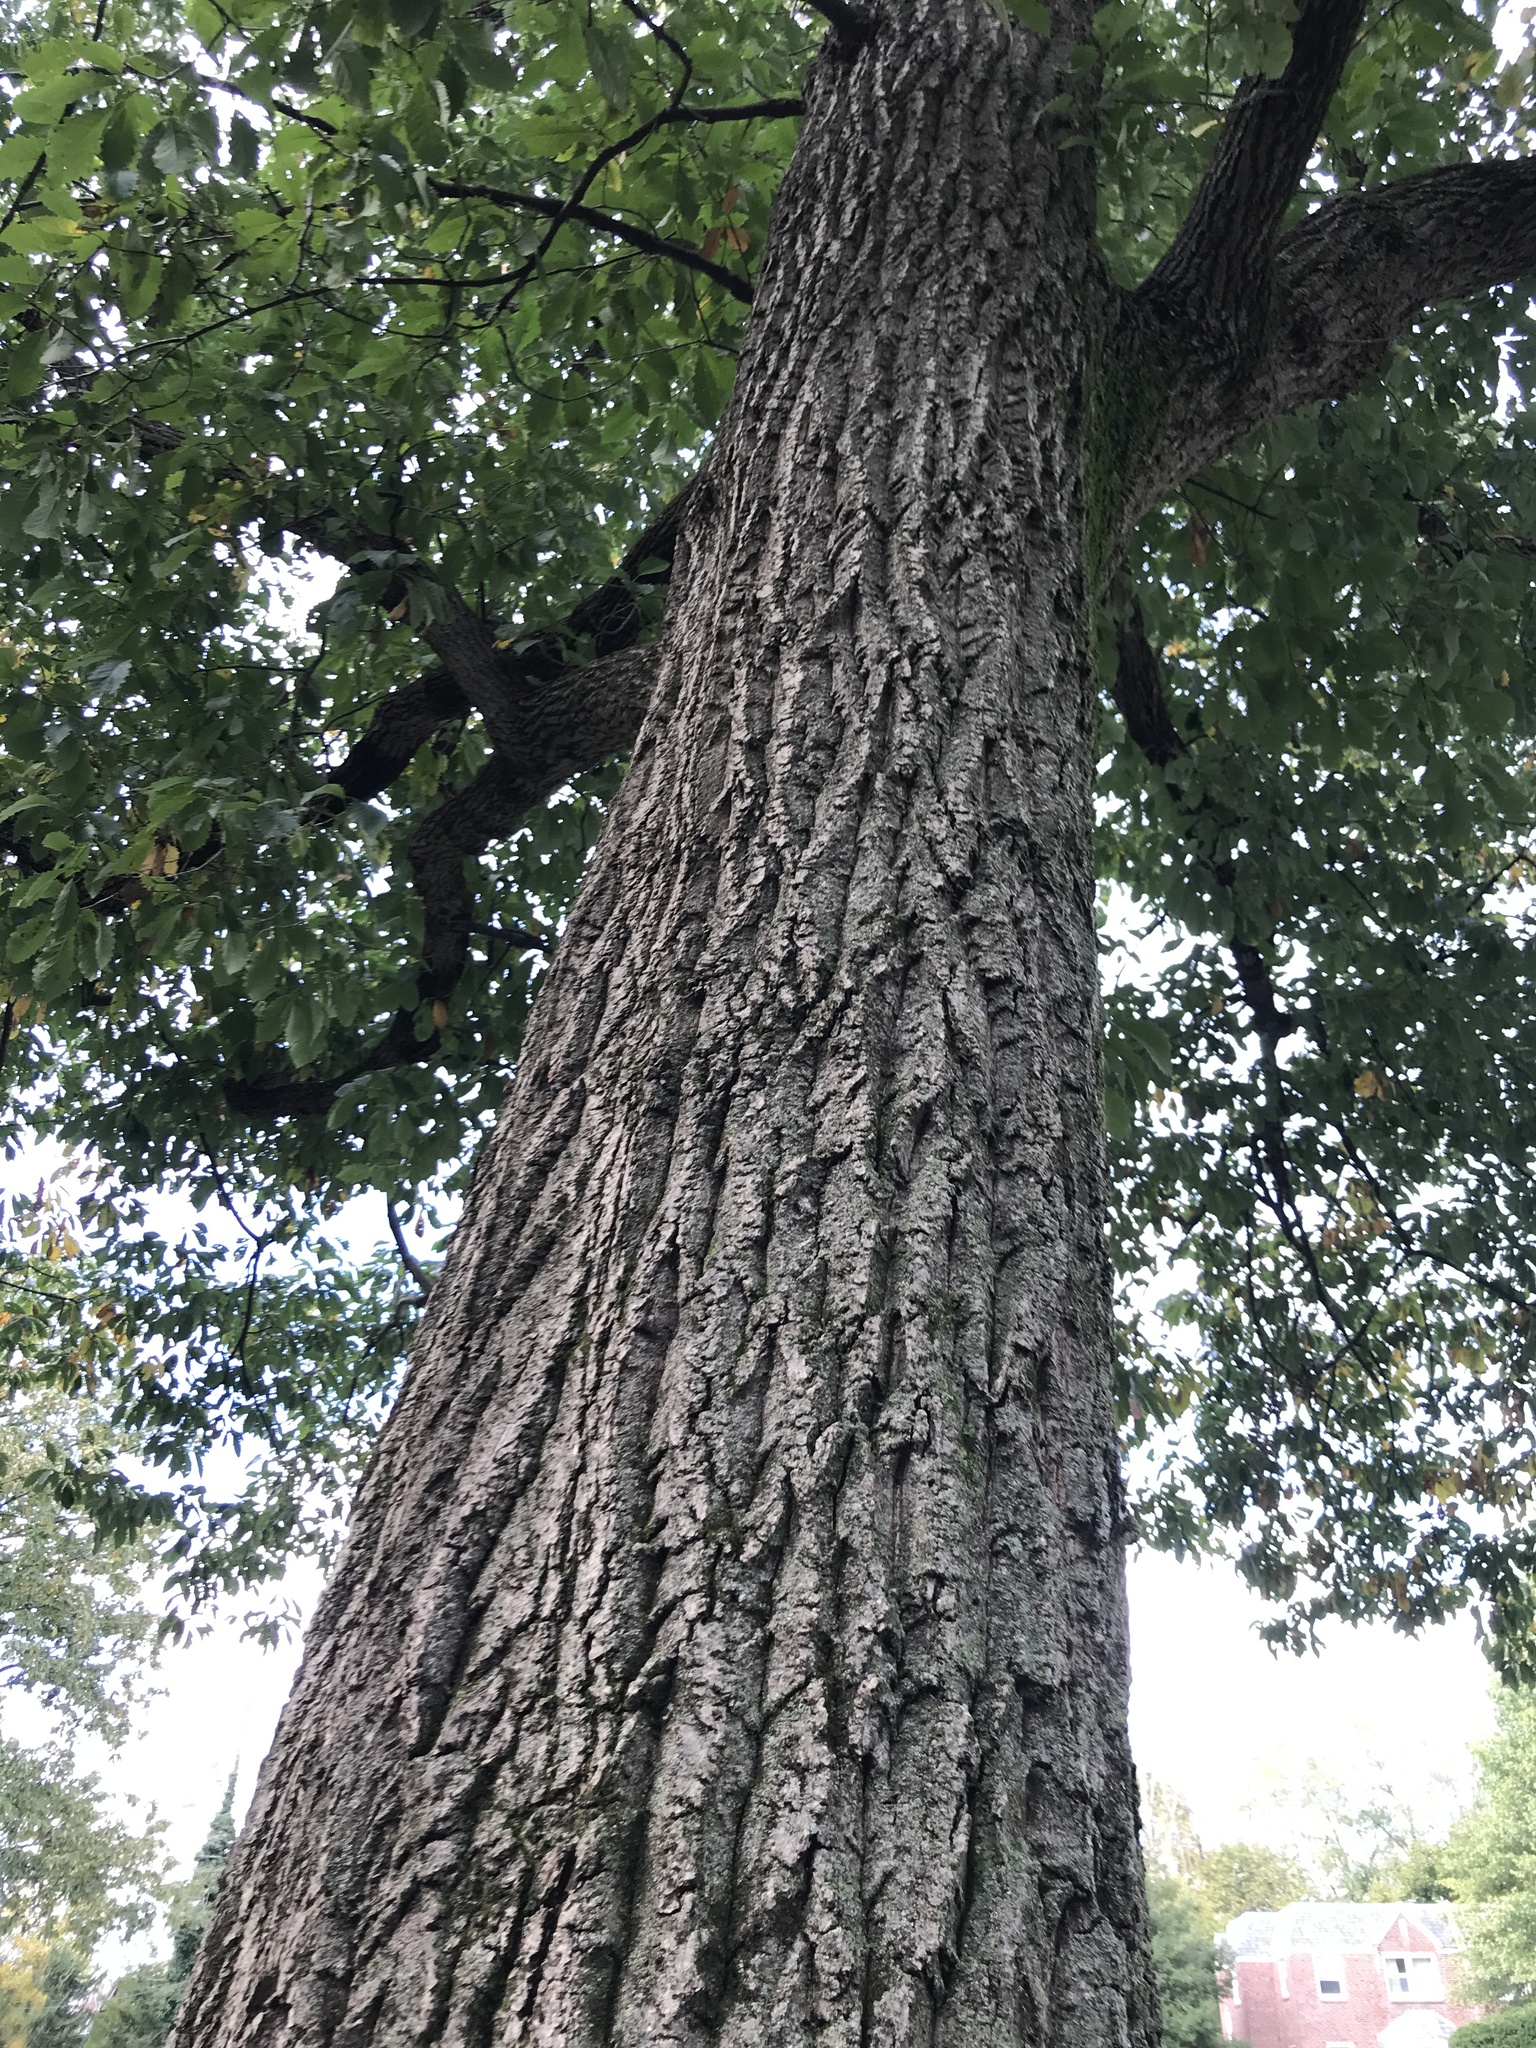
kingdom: Plantae
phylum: Tracheophyta
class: Magnoliopsida
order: Fagales
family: Fagaceae
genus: Quercus
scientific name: Quercus montana
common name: Chestnut oak
